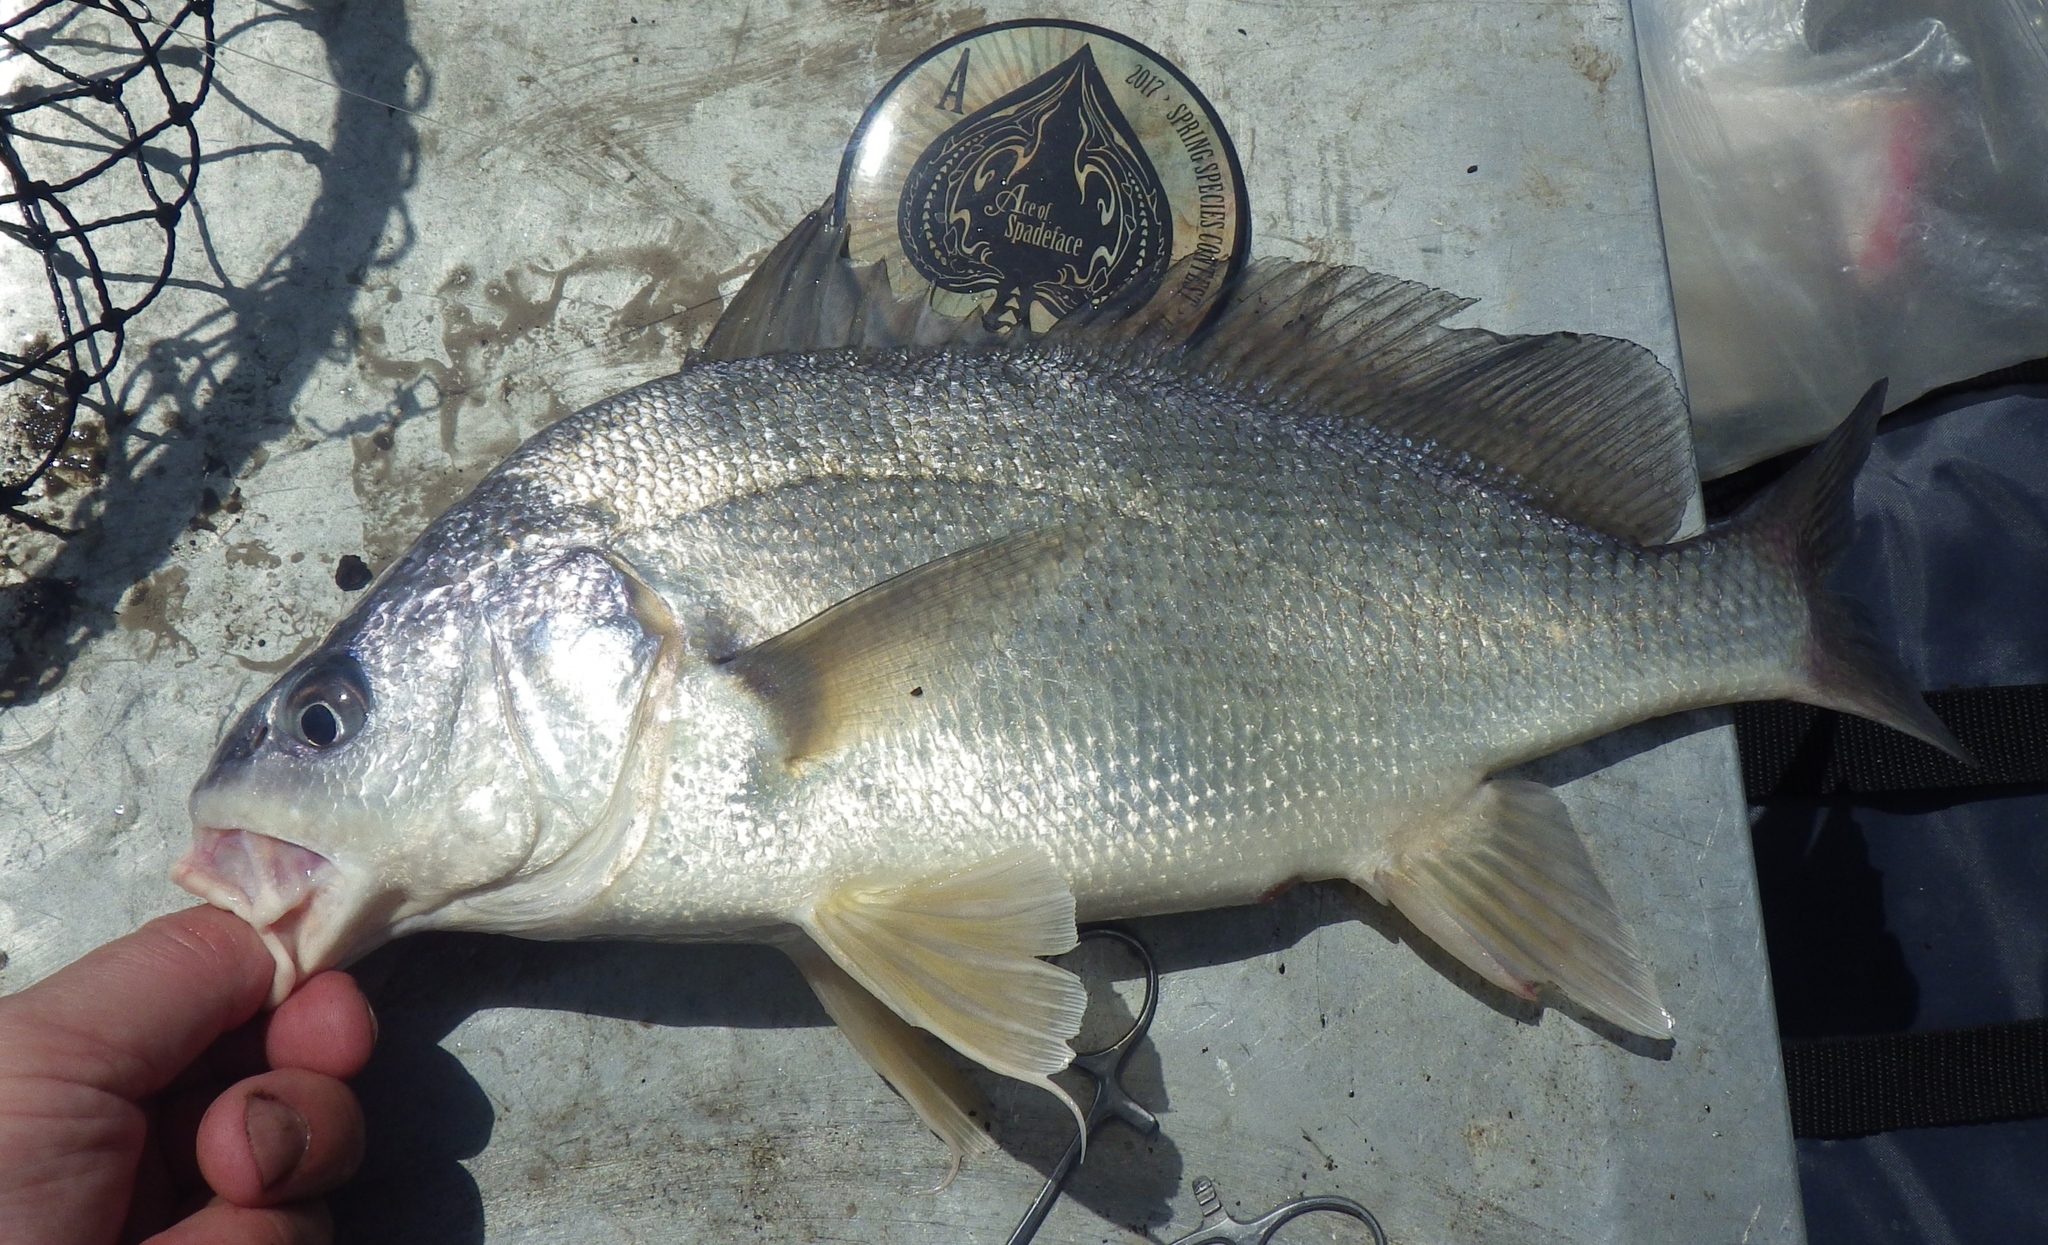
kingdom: Animalia
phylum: Chordata
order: Perciformes
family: Sciaenidae
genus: Aplodinotus
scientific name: Aplodinotus grunniens
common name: Freshwater drum
